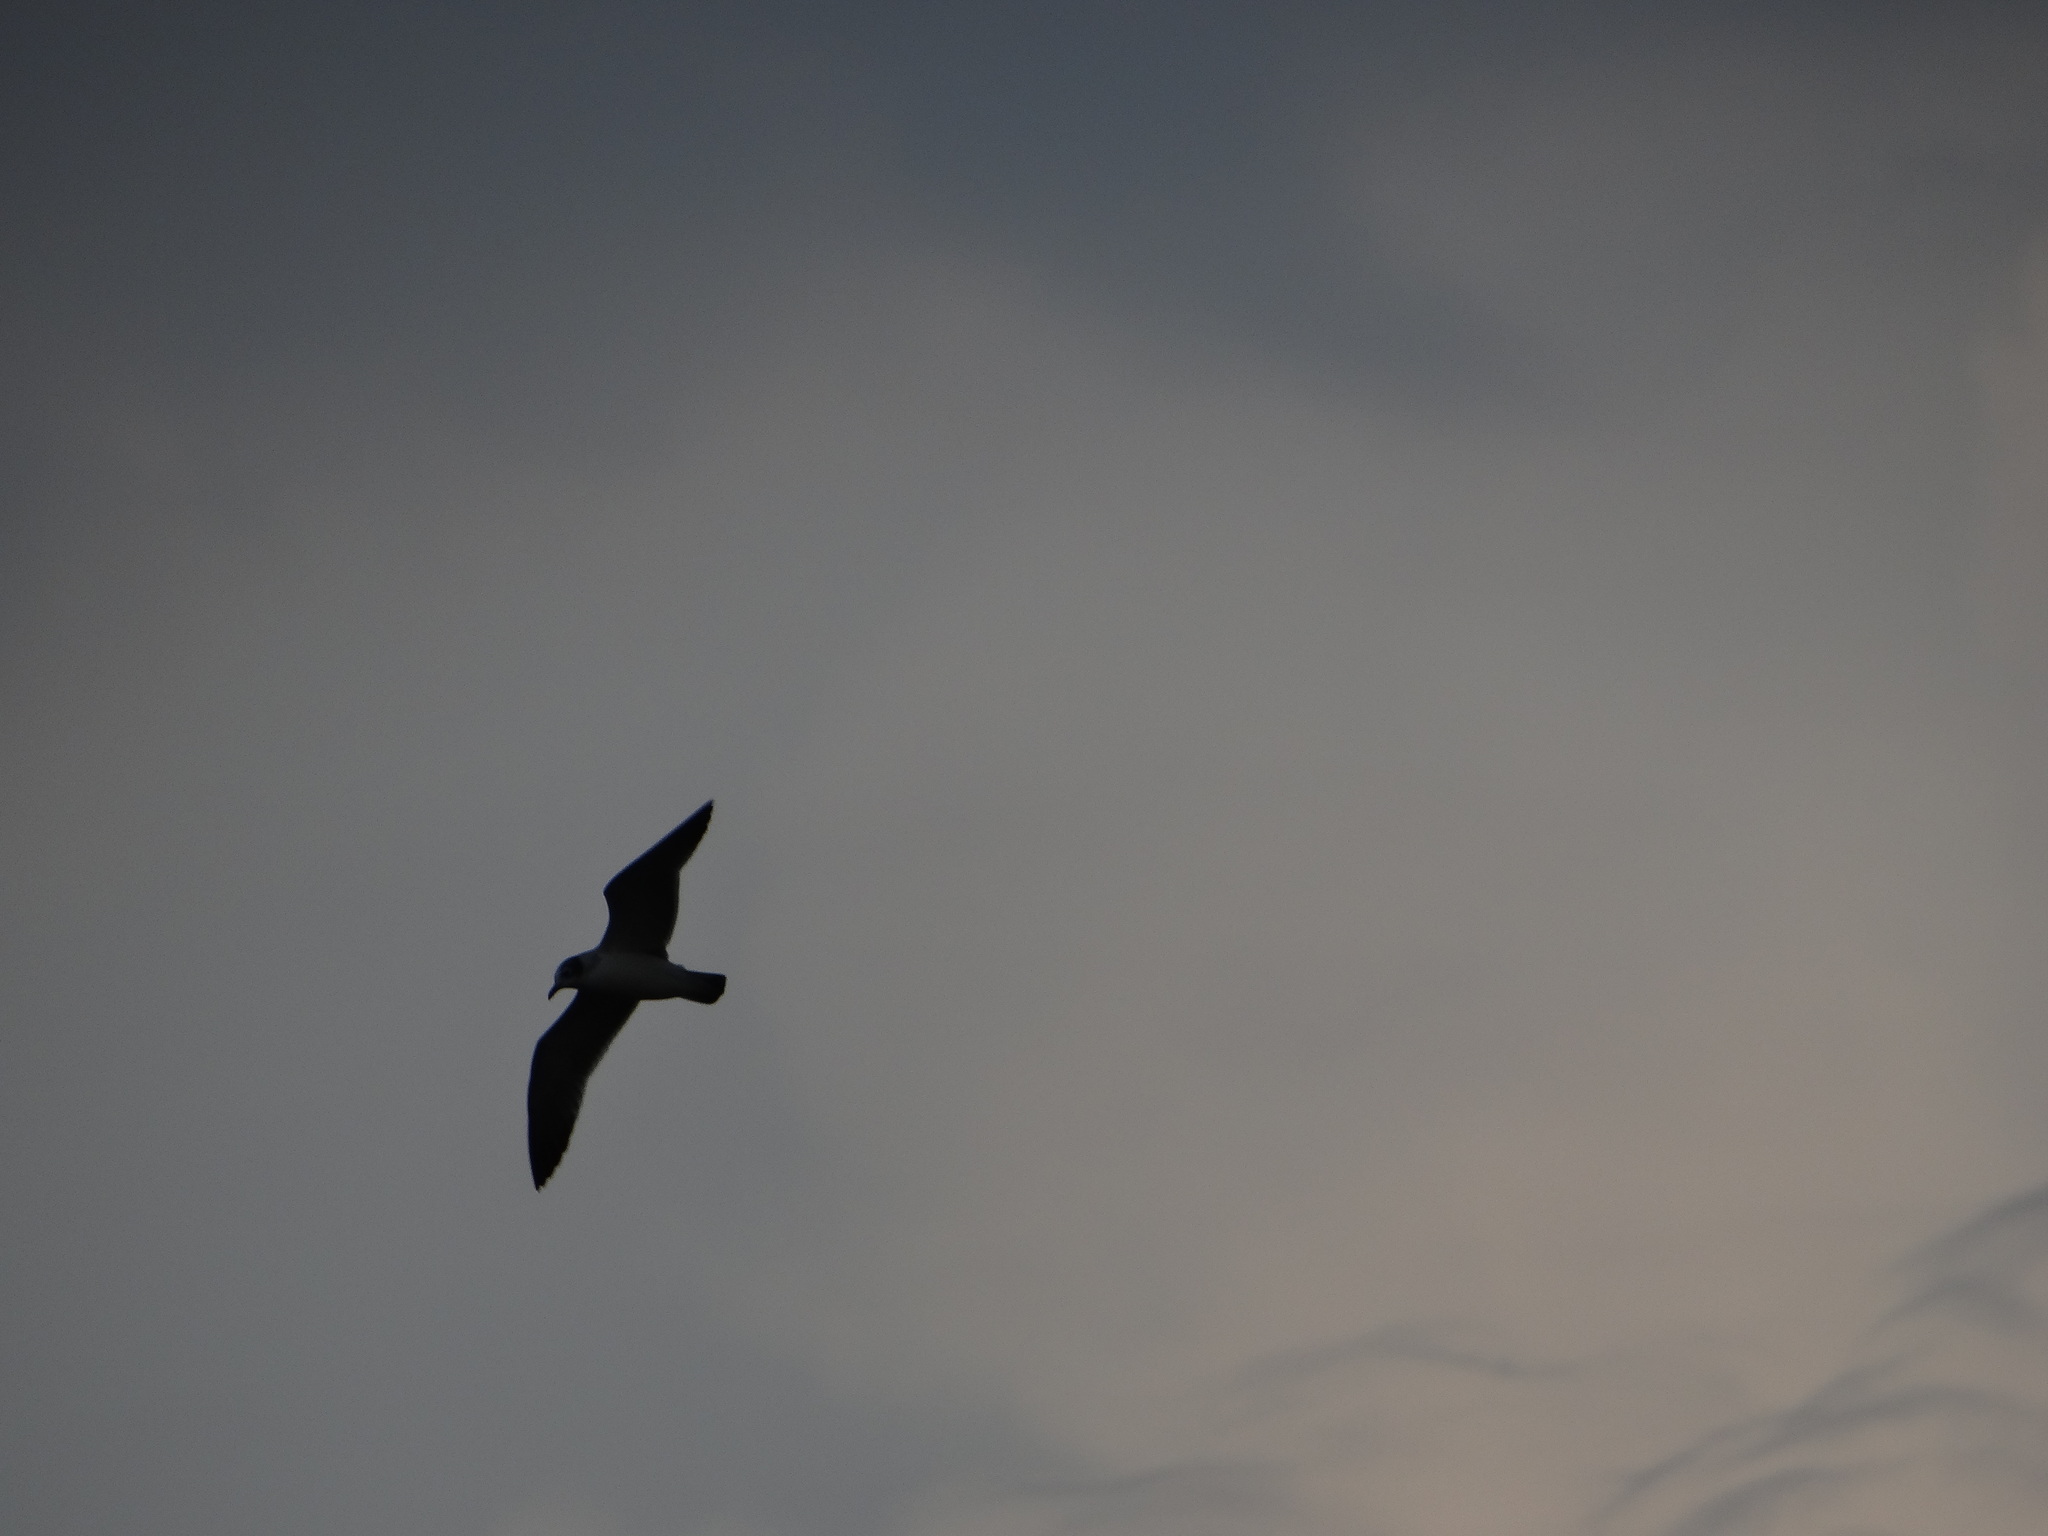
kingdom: Animalia
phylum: Chordata
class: Aves
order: Charadriiformes
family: Laridae
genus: Leucophaeus
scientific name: Leucophaeus atricilla
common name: Laughing gull
